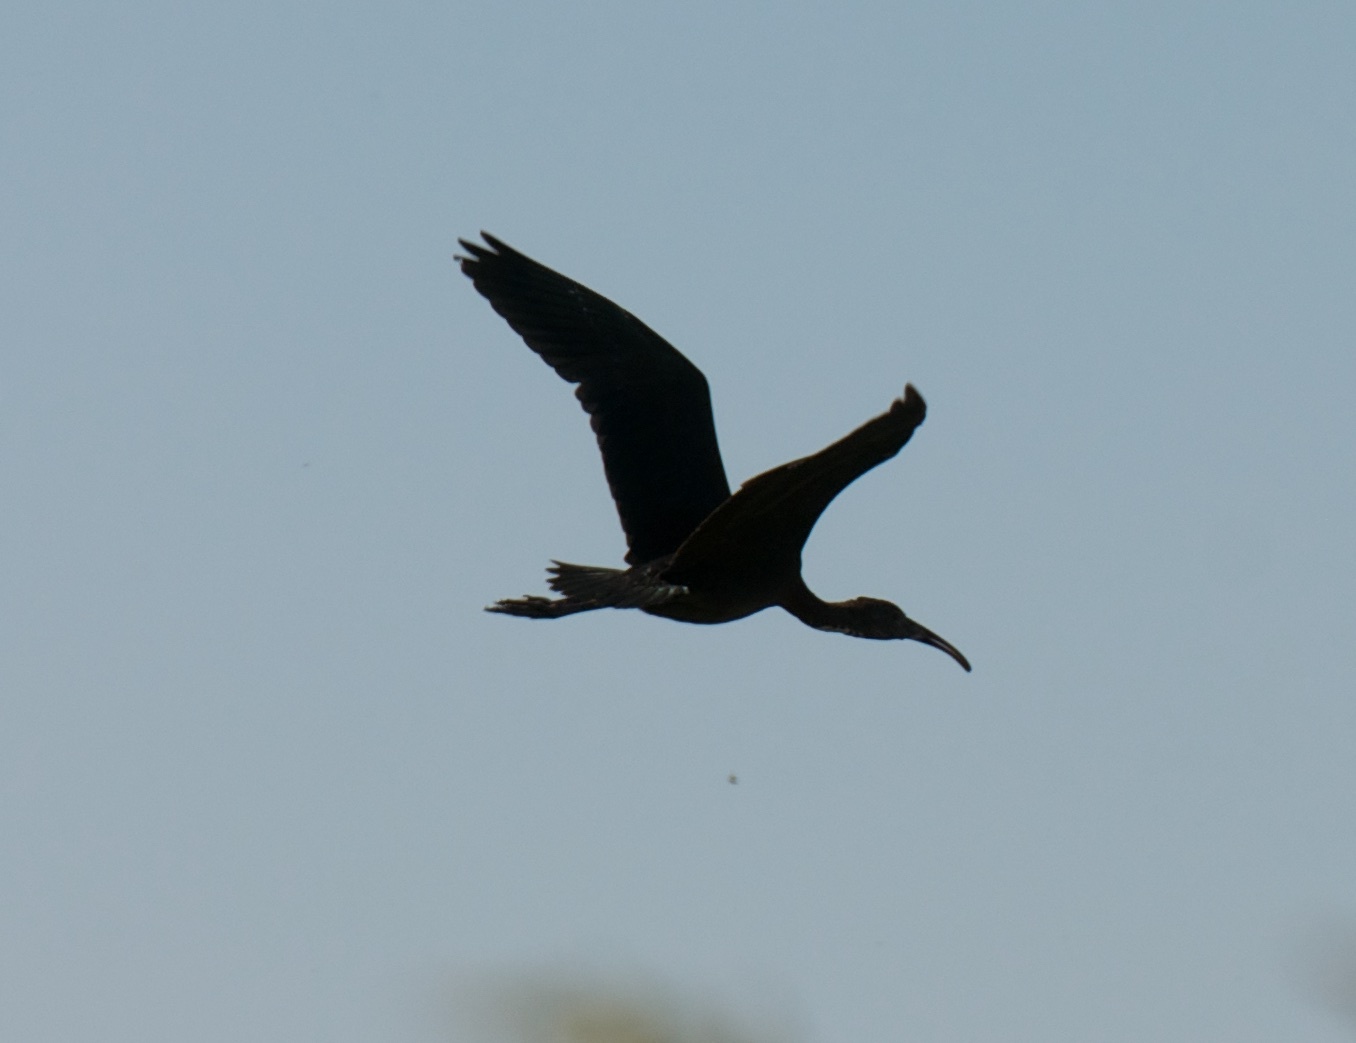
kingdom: Animalia
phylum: Chordata
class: Aves
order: Pelecaniformes
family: Threskiornithidae
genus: Plegadis
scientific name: Plegadis chihi
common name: White-faced ibis
